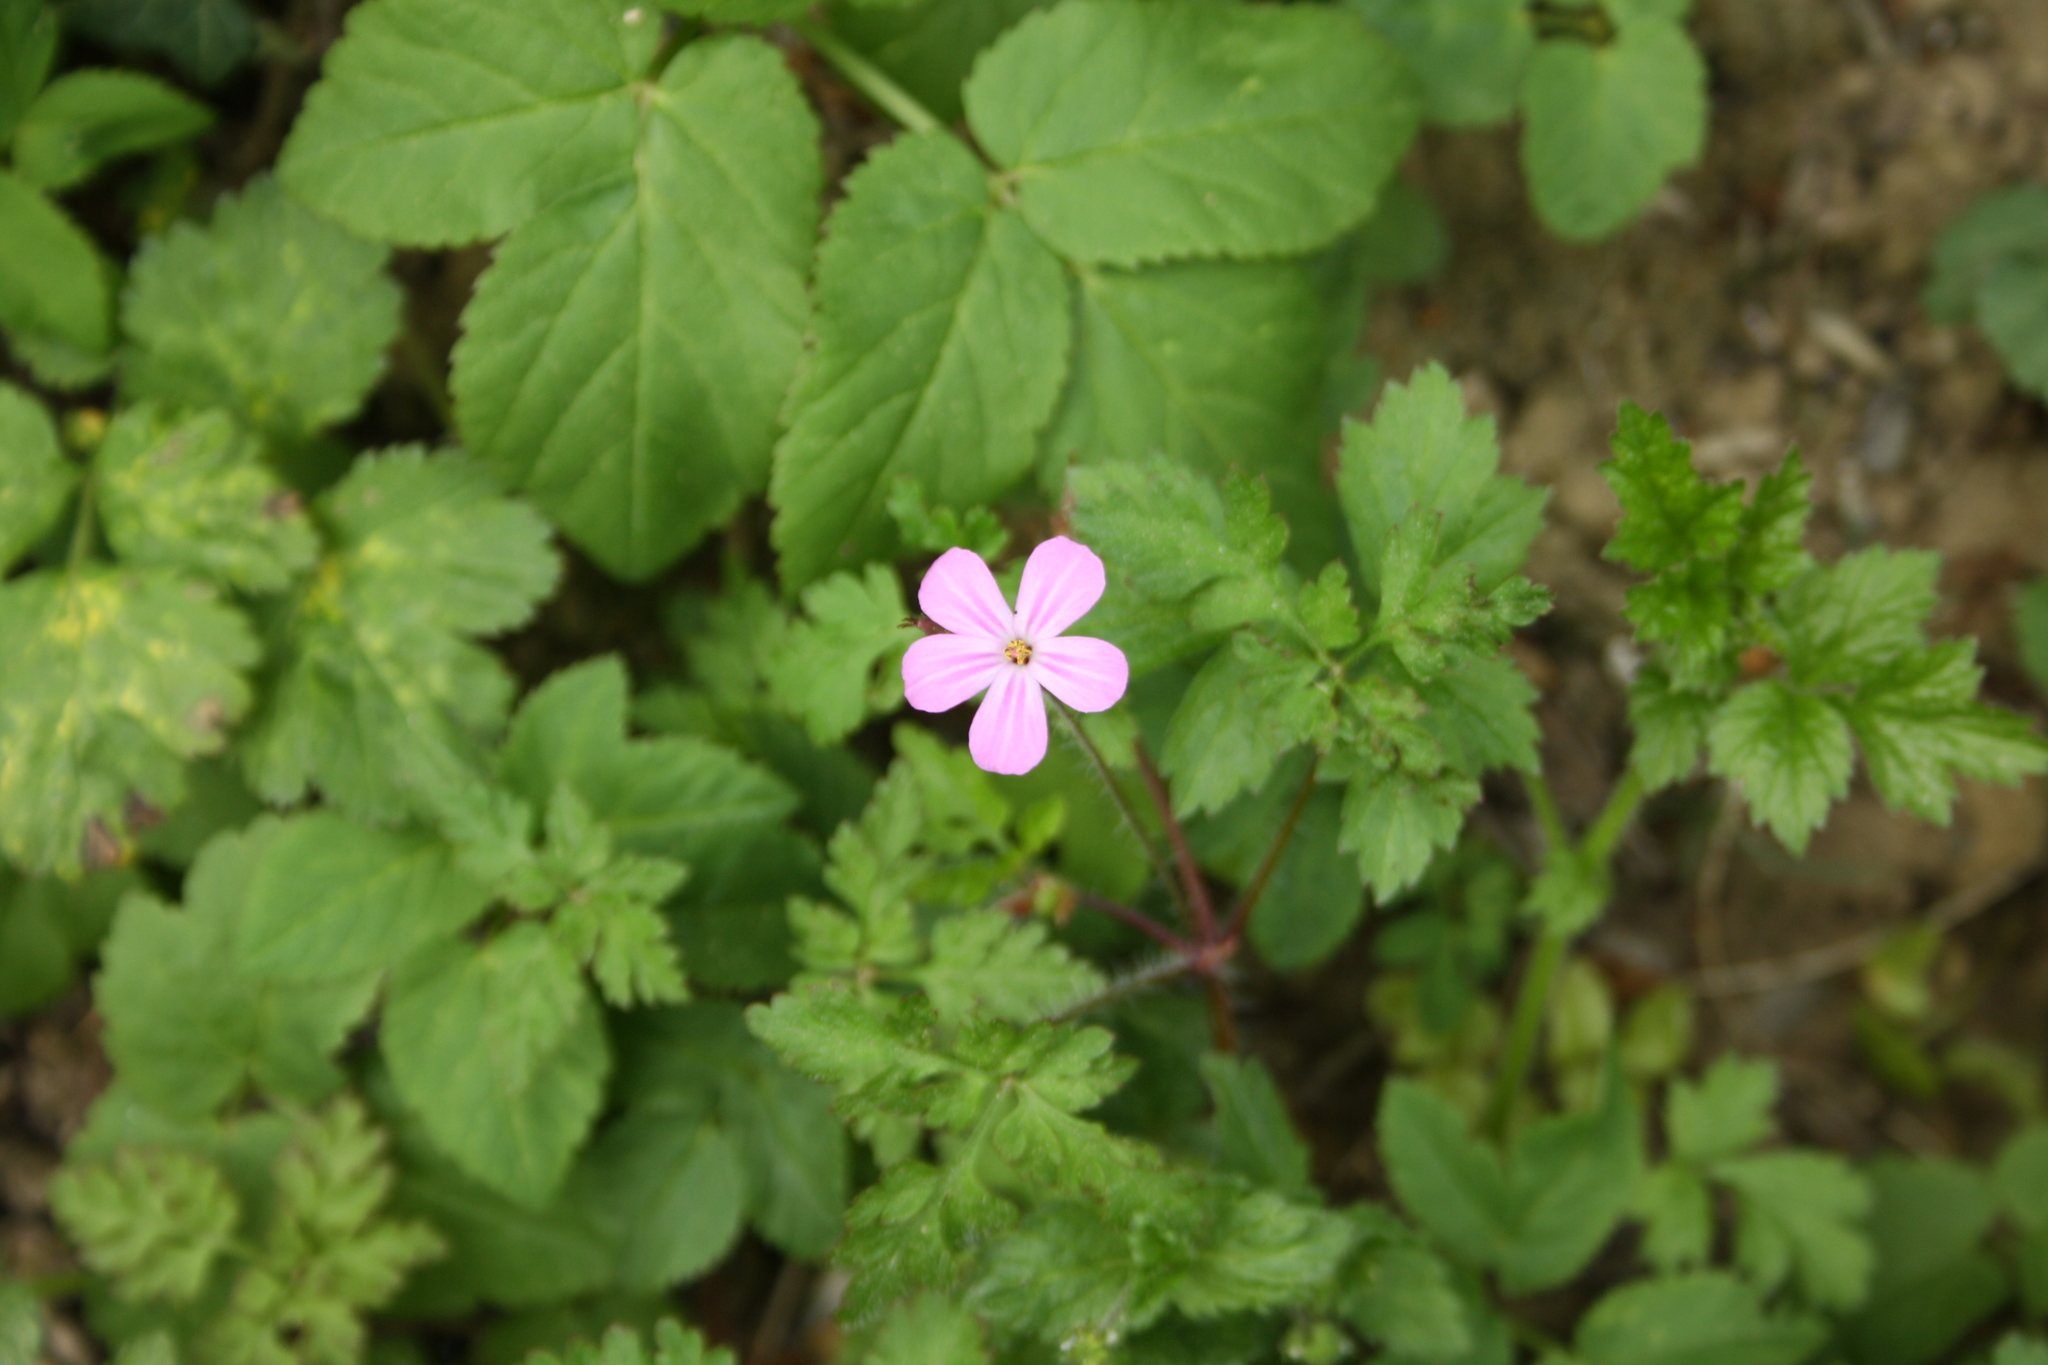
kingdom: Plantae
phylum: Tracheophyta
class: Magnoliopsida
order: Geraniales
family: Geraniaceae
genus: Geranium
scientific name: Geranium robertianum
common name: Herb-robert
